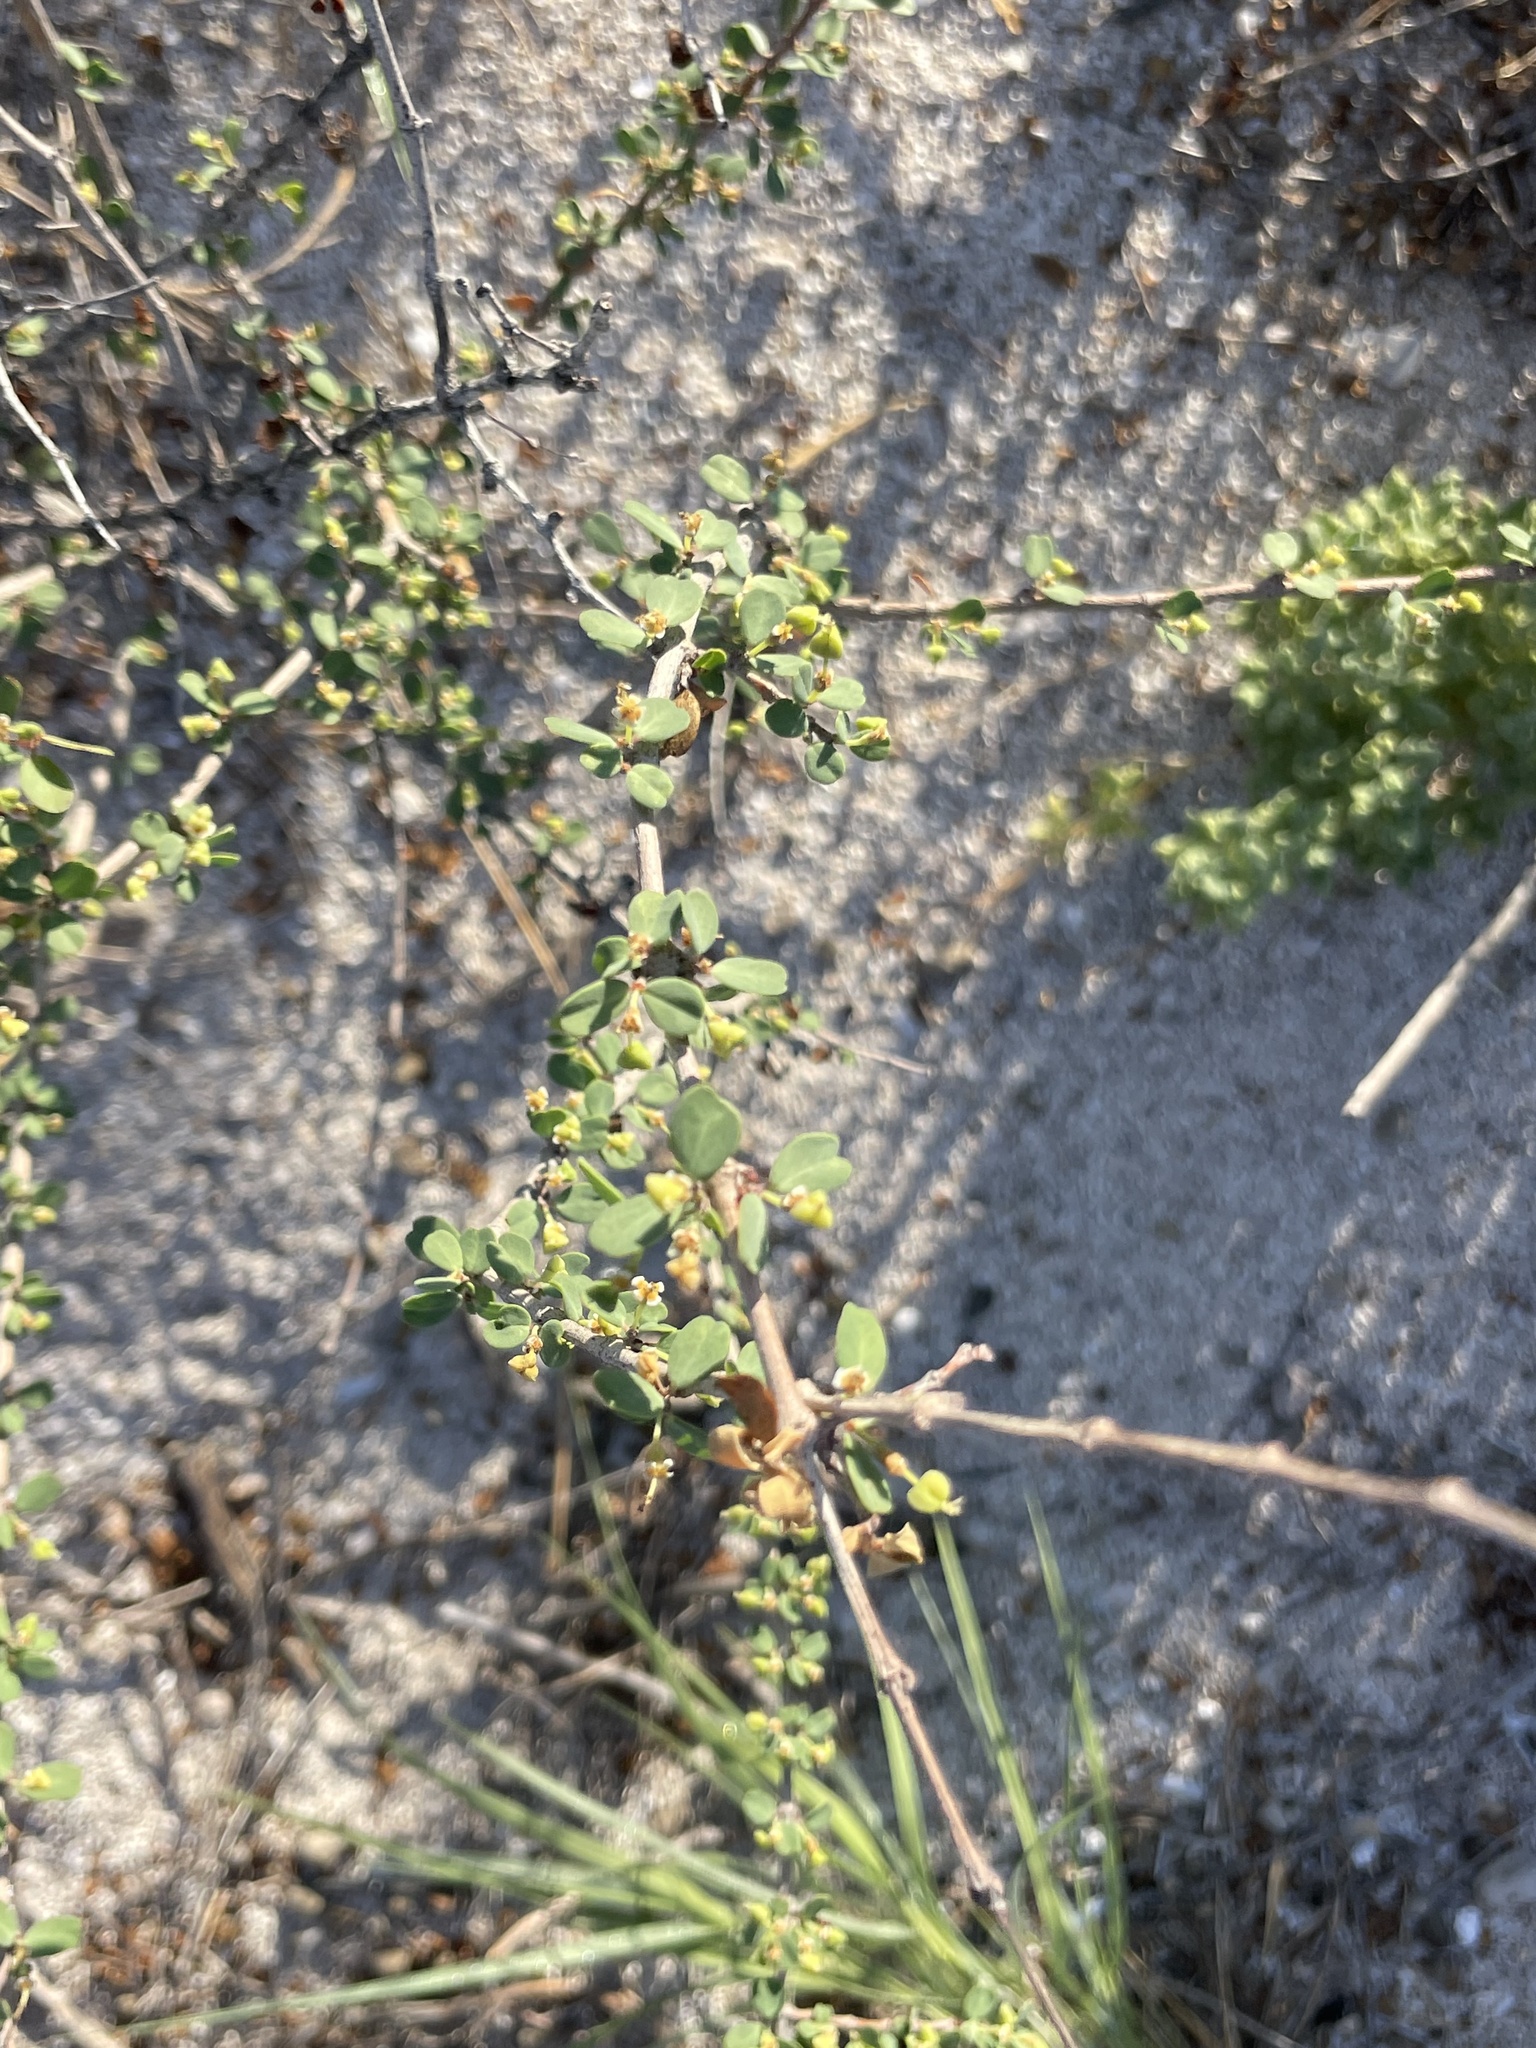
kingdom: Plantae
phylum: Tracheophyta
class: Magnoliopsida
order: Malpighiales
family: Euphorbiaceae
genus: Euphorbia
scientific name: Euphorbia magdalenae
